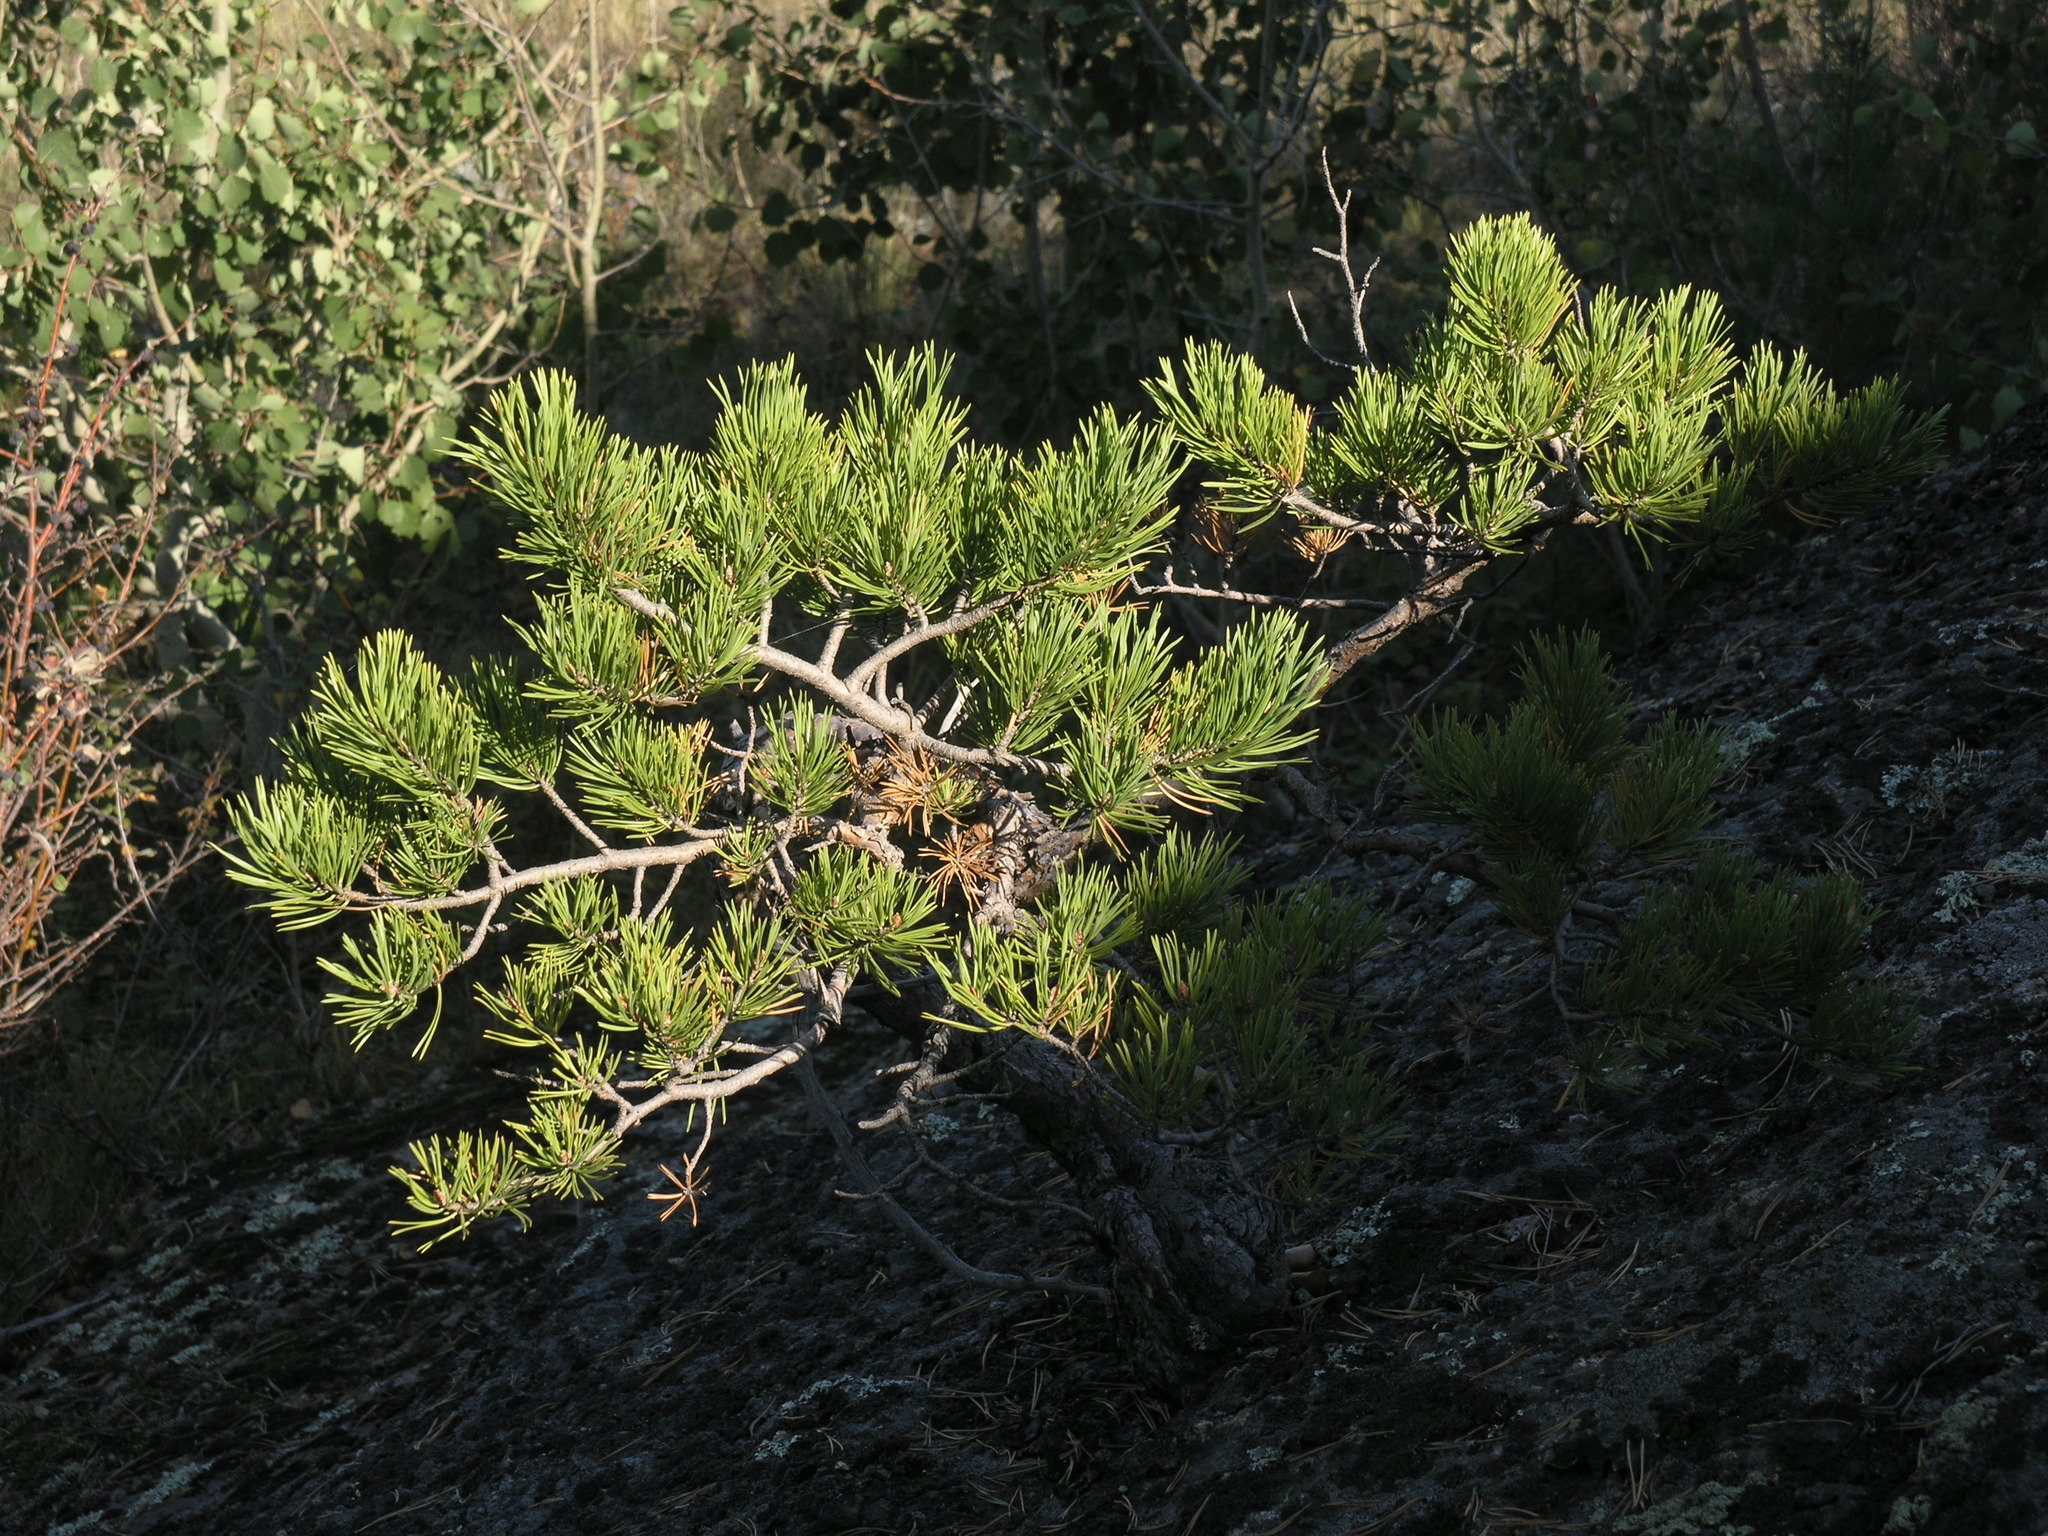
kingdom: Plantae
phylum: Tracheophyta
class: Pinopsida
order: Pinales
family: Pinaceae
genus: Pinus
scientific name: Pinus sylvestris
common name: Scots pine
